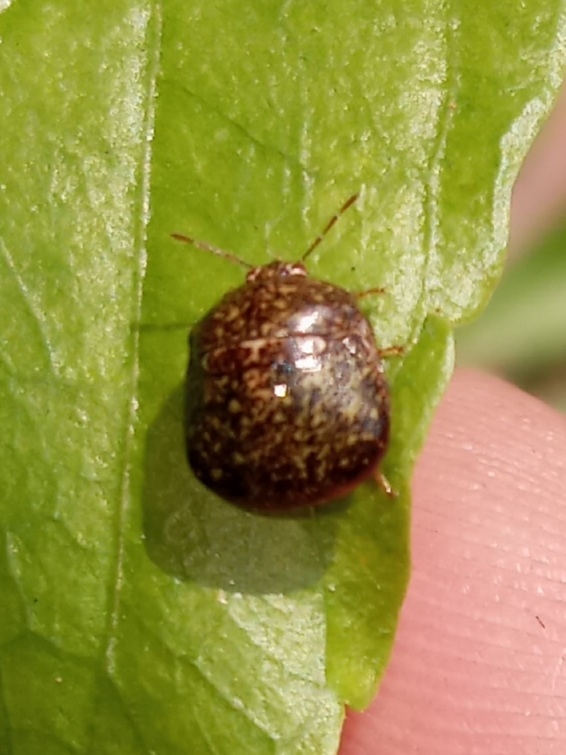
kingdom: Animalia
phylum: Arthropoda
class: Insecta
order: Hemiptera
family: Plataspidae
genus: Megacopta
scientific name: Megacopta cribraria
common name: Bean plataspid
